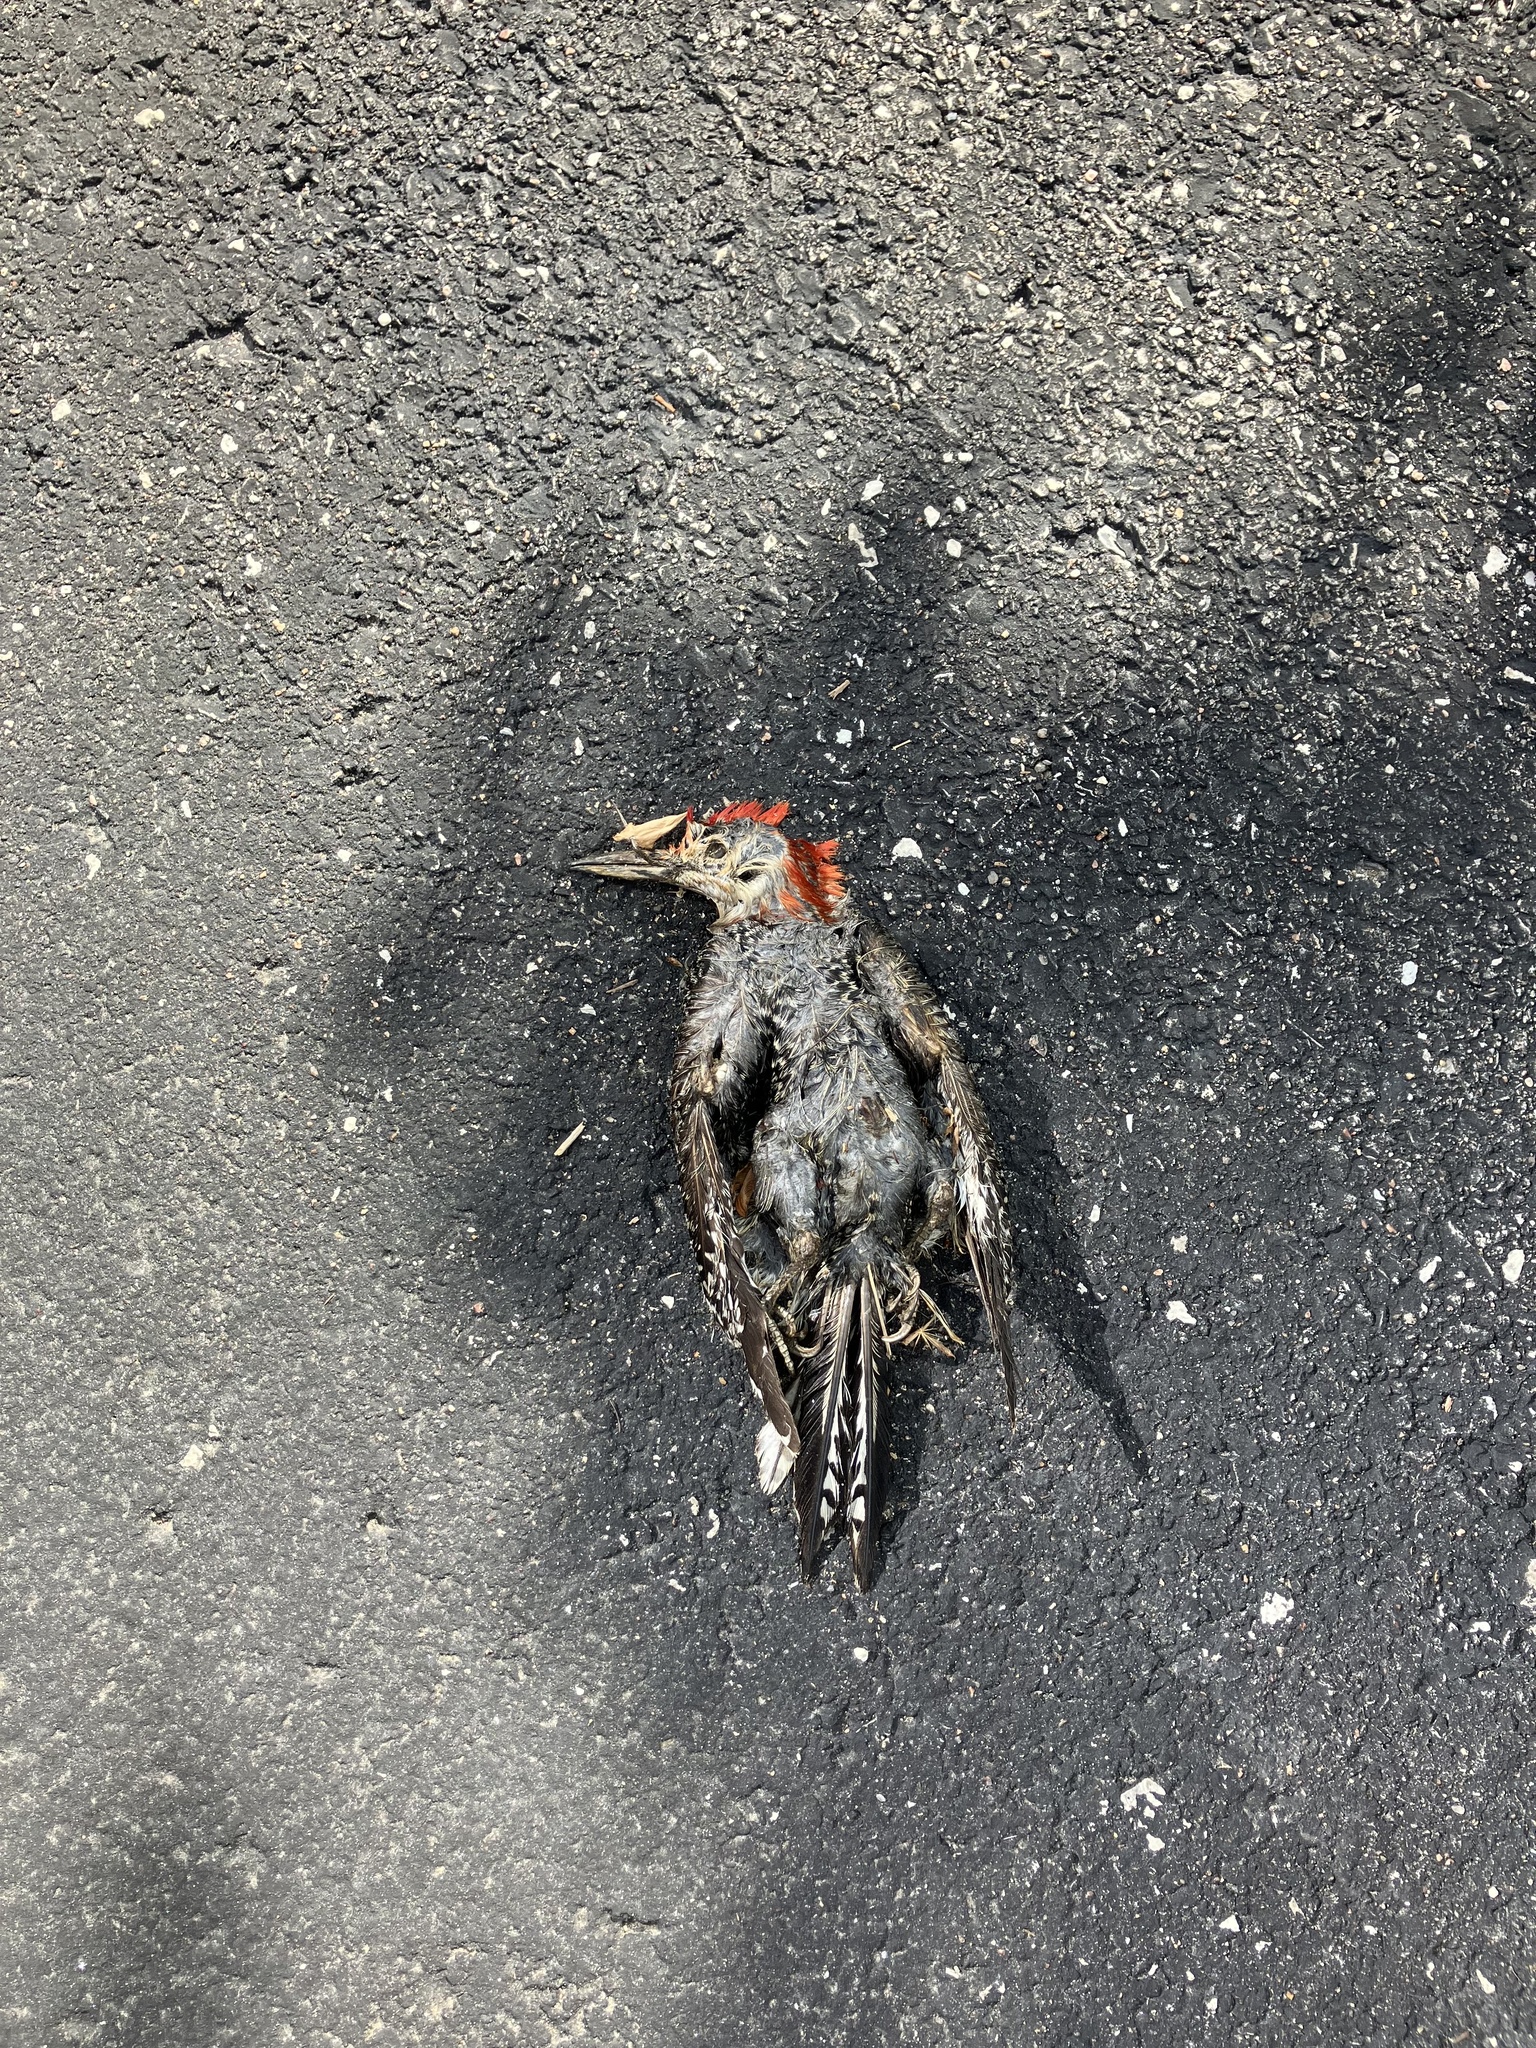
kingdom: Animalia
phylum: Chordata
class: Aves
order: Piciformes
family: Picidae
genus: Melanerpes
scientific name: Melanerpes carolinus
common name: Red-bellied woodpecker
